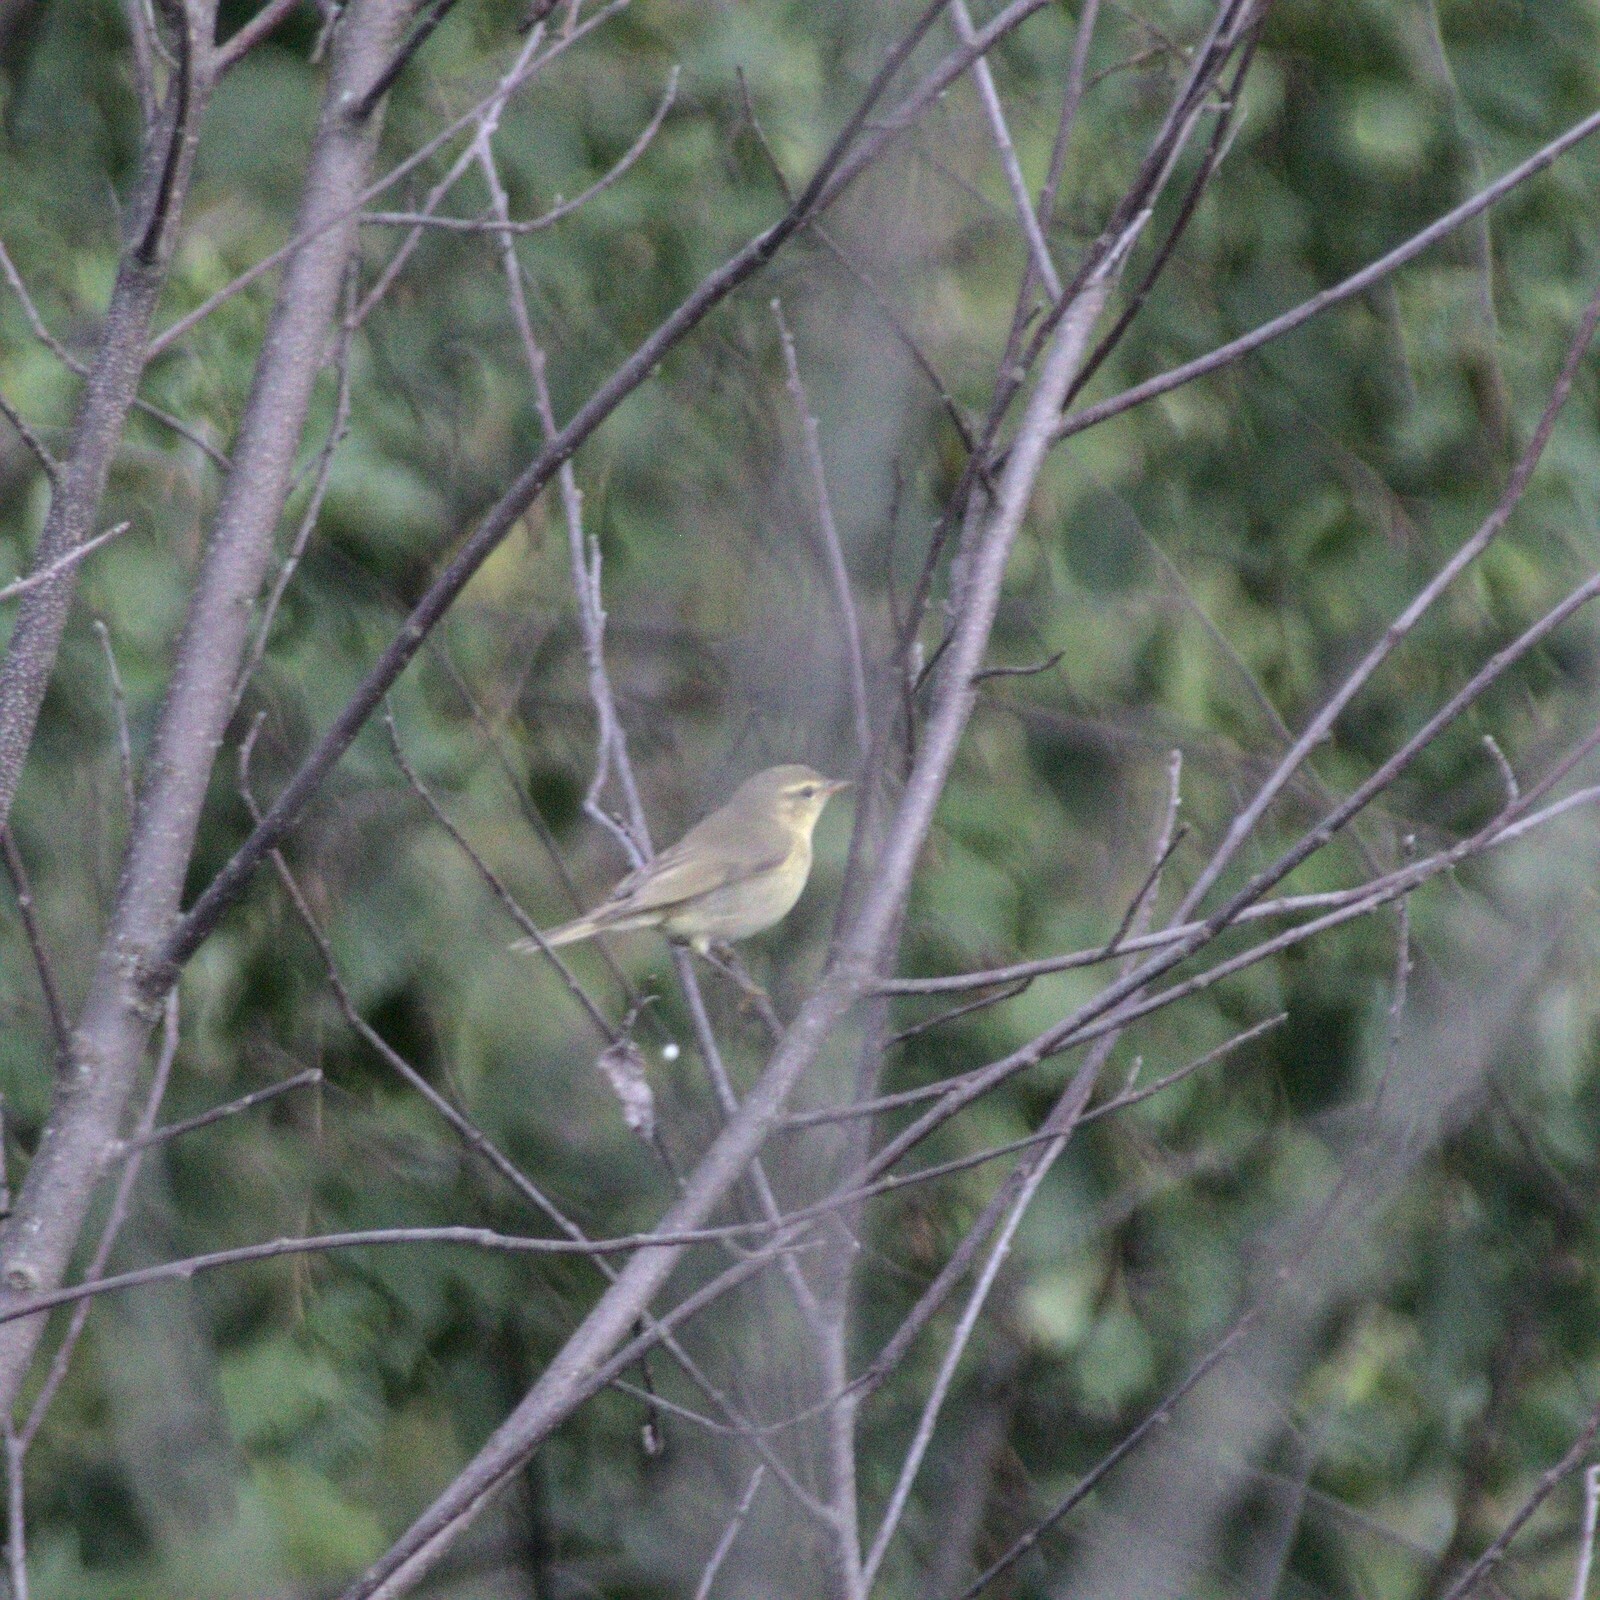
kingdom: Animalia
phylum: Chordata
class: Aves
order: Passeriformes
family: Phylloscopidae
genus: Phylloscopus
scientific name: Phylloscopus trochilus
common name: Willow warbler
